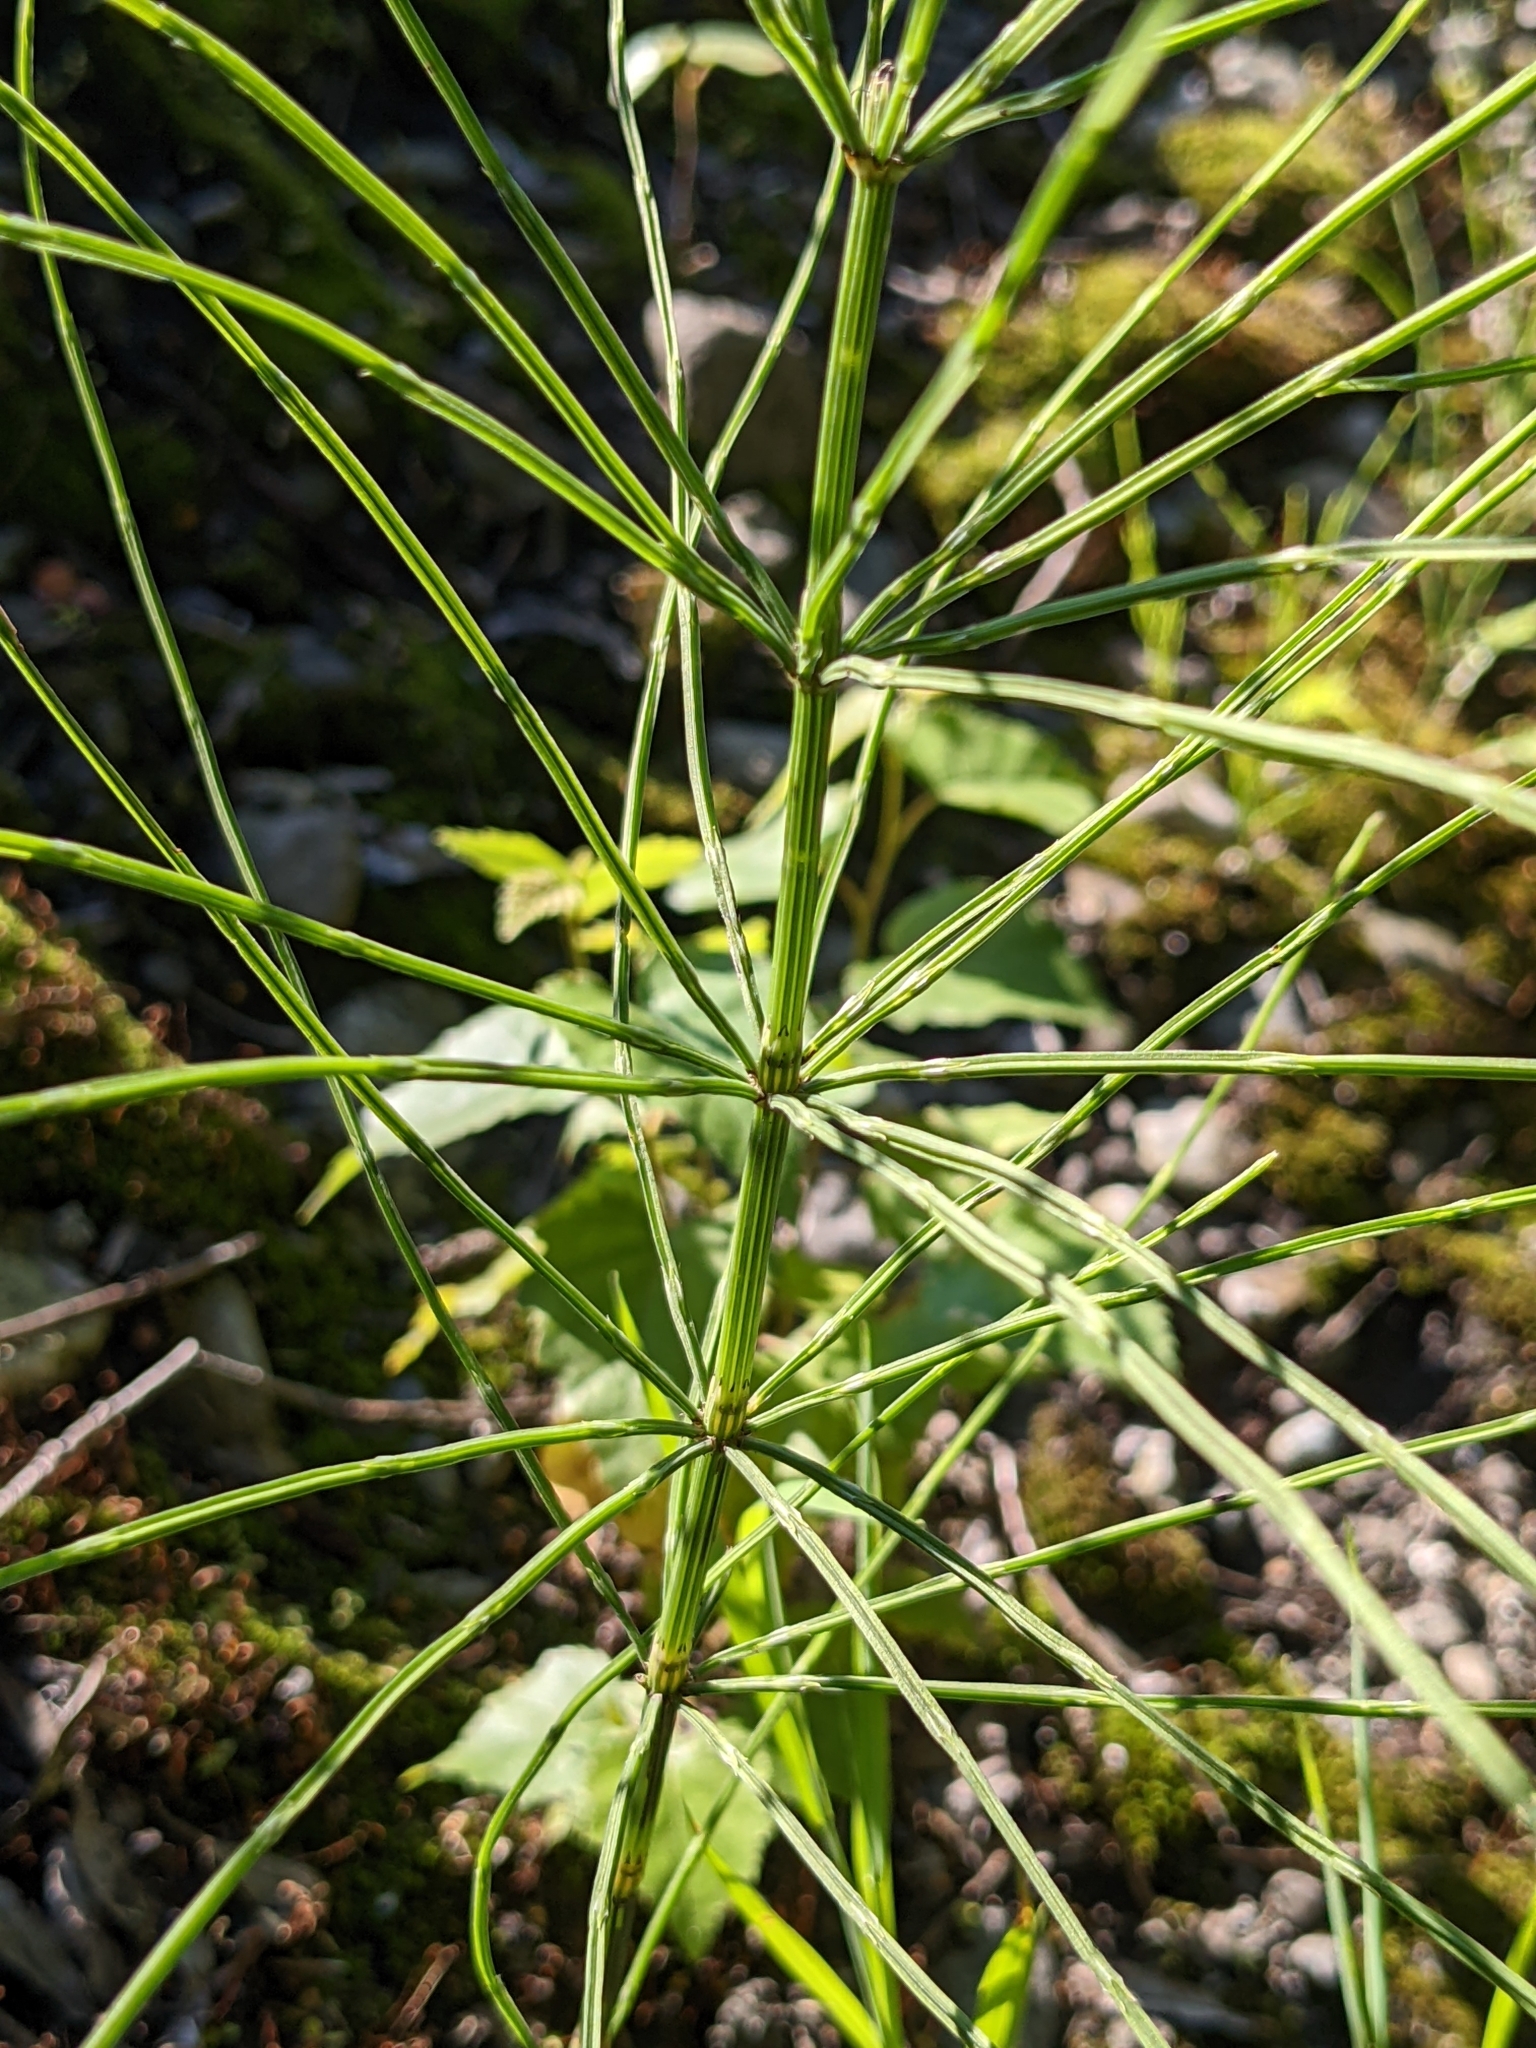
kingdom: Plantae
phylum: Tracheophyta
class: Polypodiopsida
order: Equisetales
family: Equisetaceae
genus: Equisetum
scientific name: Equisetum arvense
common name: Field horsetail
